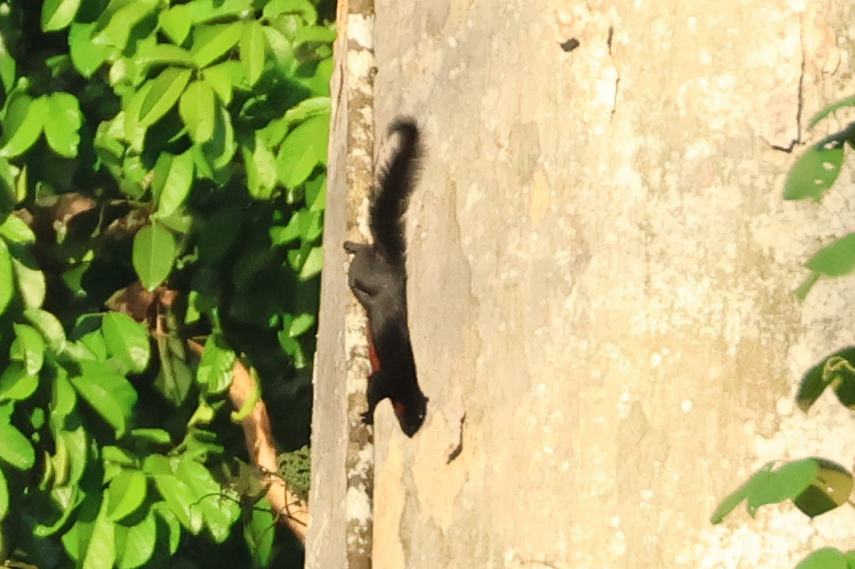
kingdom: Animalia
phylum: Chordata
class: Mammalia
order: Rodentia
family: Sciuridae
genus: Callosciurus
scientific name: Callosciurus prevostii
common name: Prevost's squirrel
